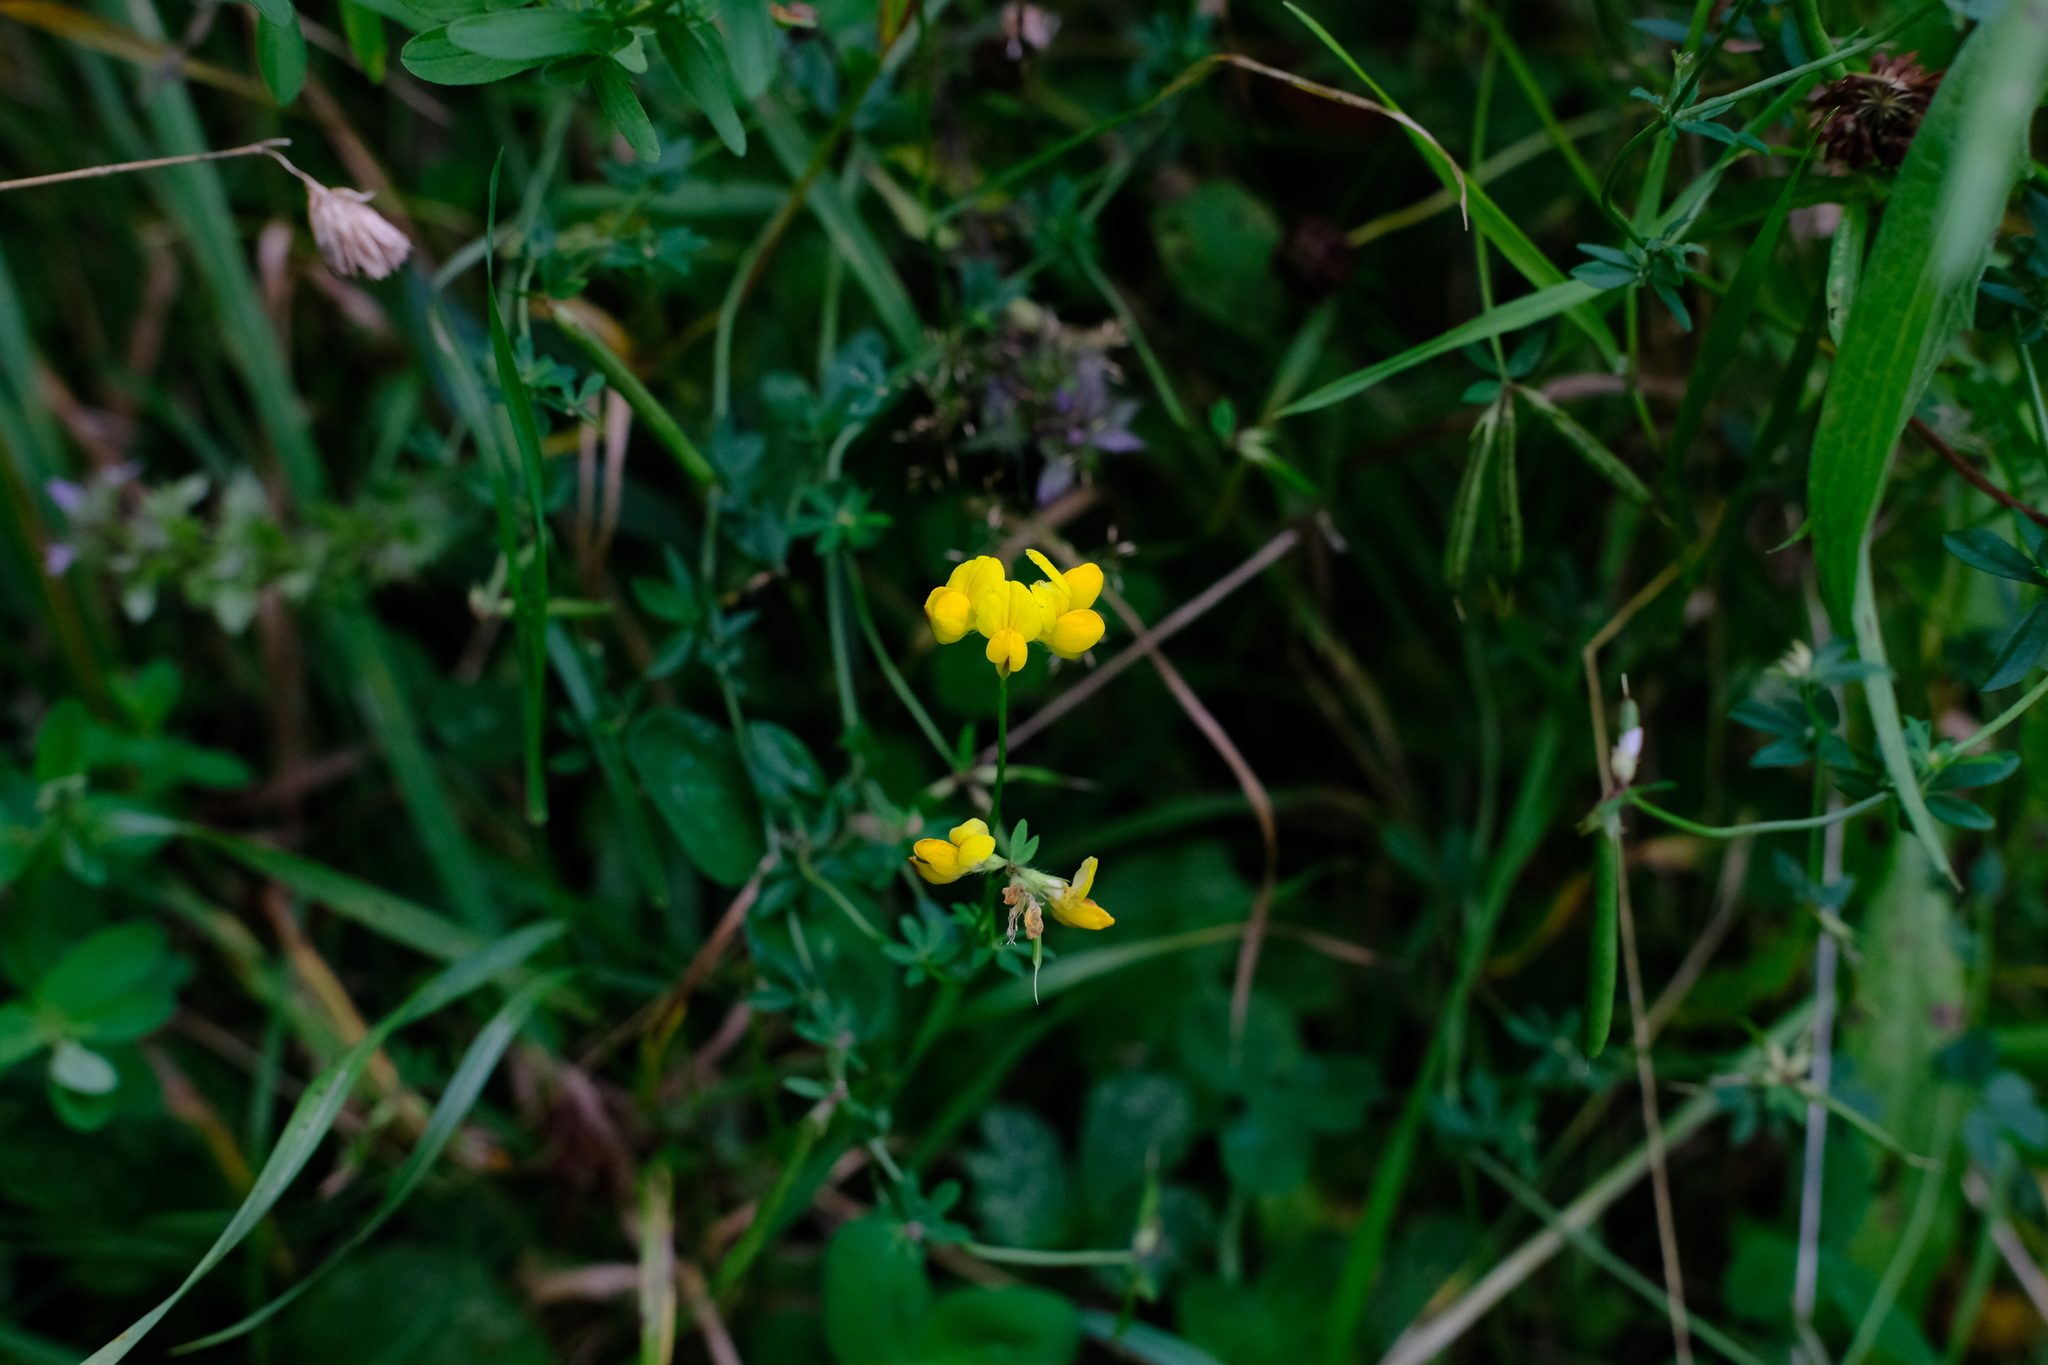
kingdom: Plantae
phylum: Tracheophyta
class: Magnoliopsida
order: Fabales
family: Fabaceae
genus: Lotus
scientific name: Lotus corniculatus
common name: Common bird's-foot-trefoil
